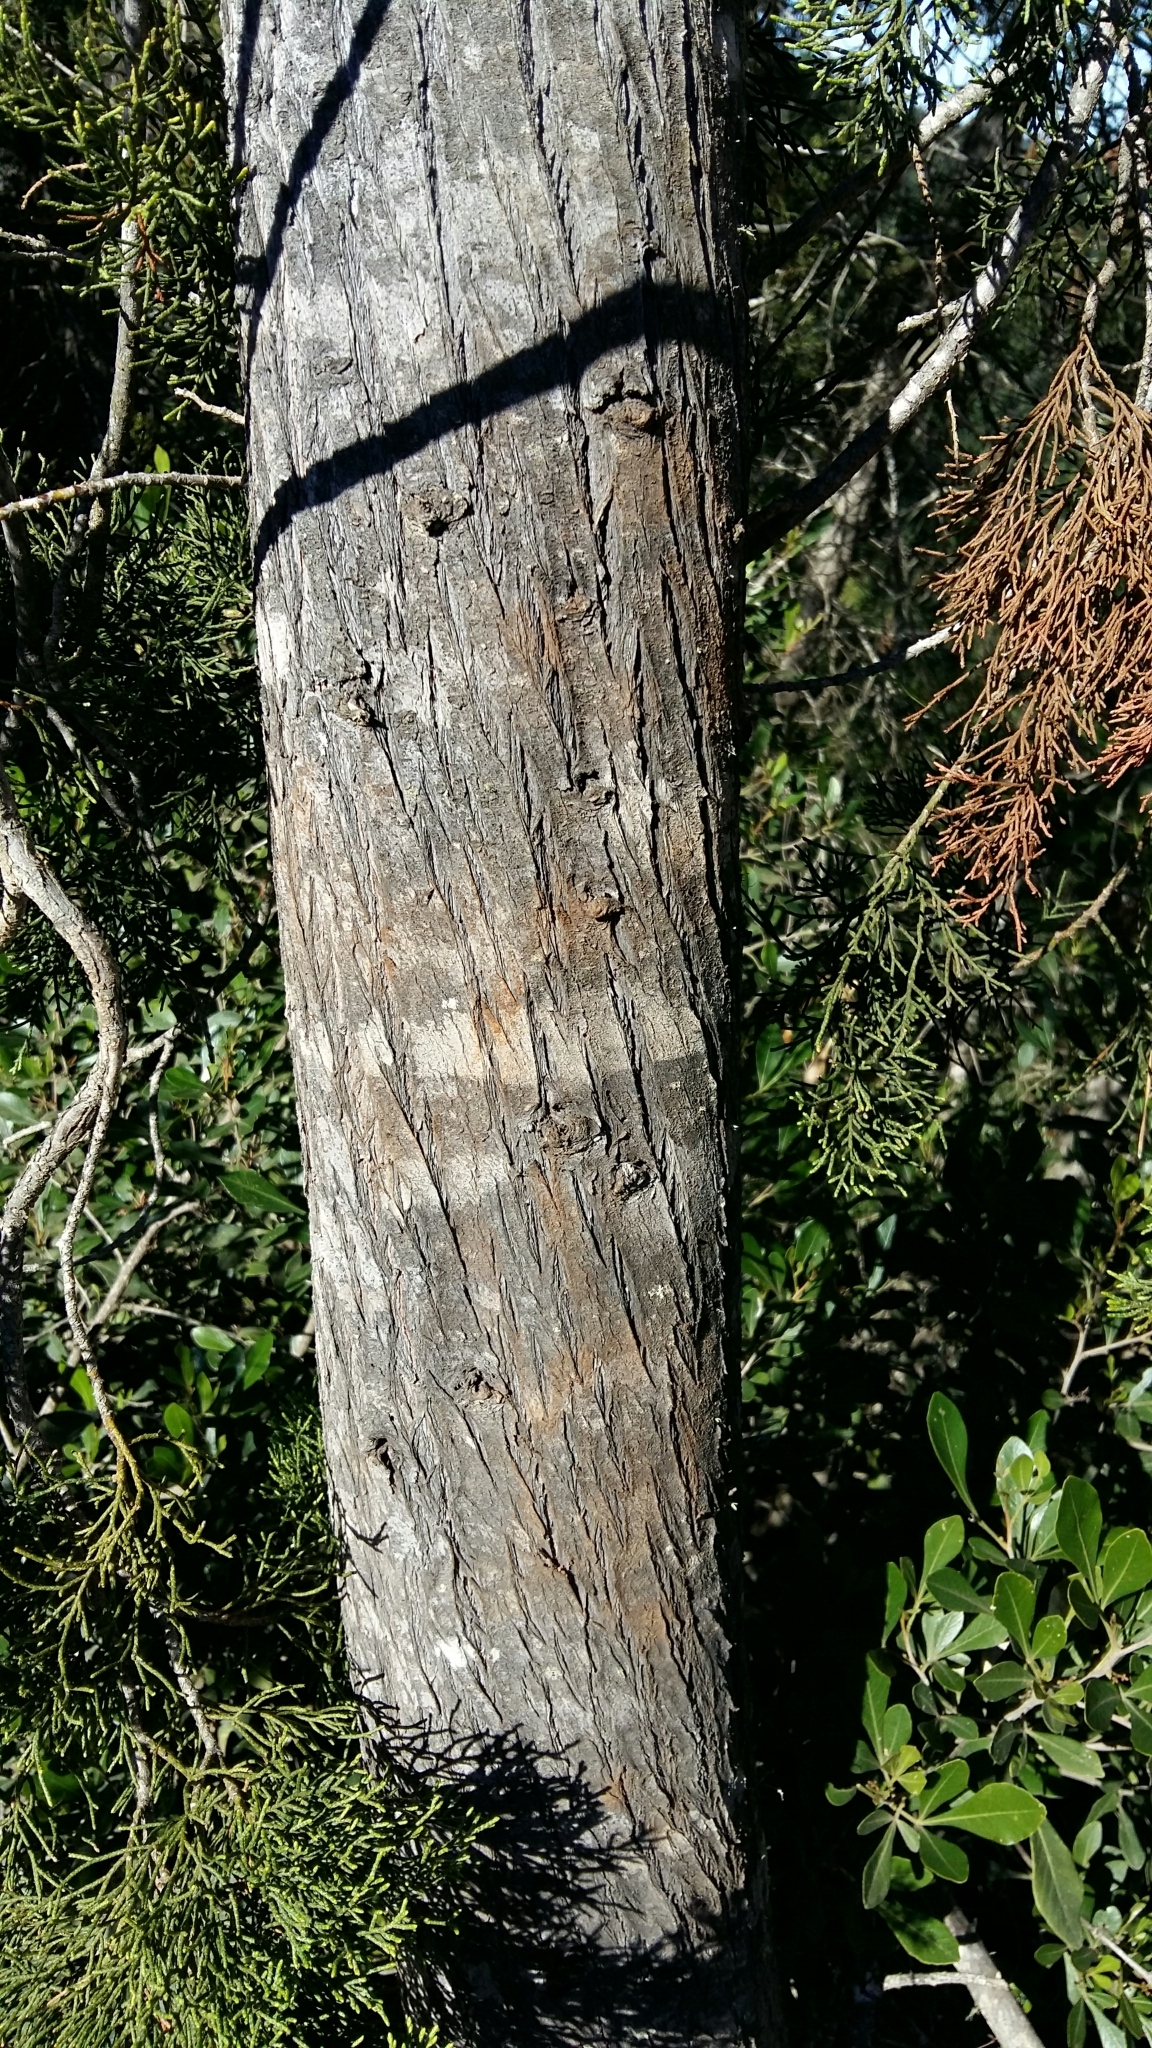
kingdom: Plantae
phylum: Tracheophyta
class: Pinopsida
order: Pinales
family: Cupressaceae
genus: Widdringtonia
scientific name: Widdringtonia nodiflora
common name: Cape cypress
